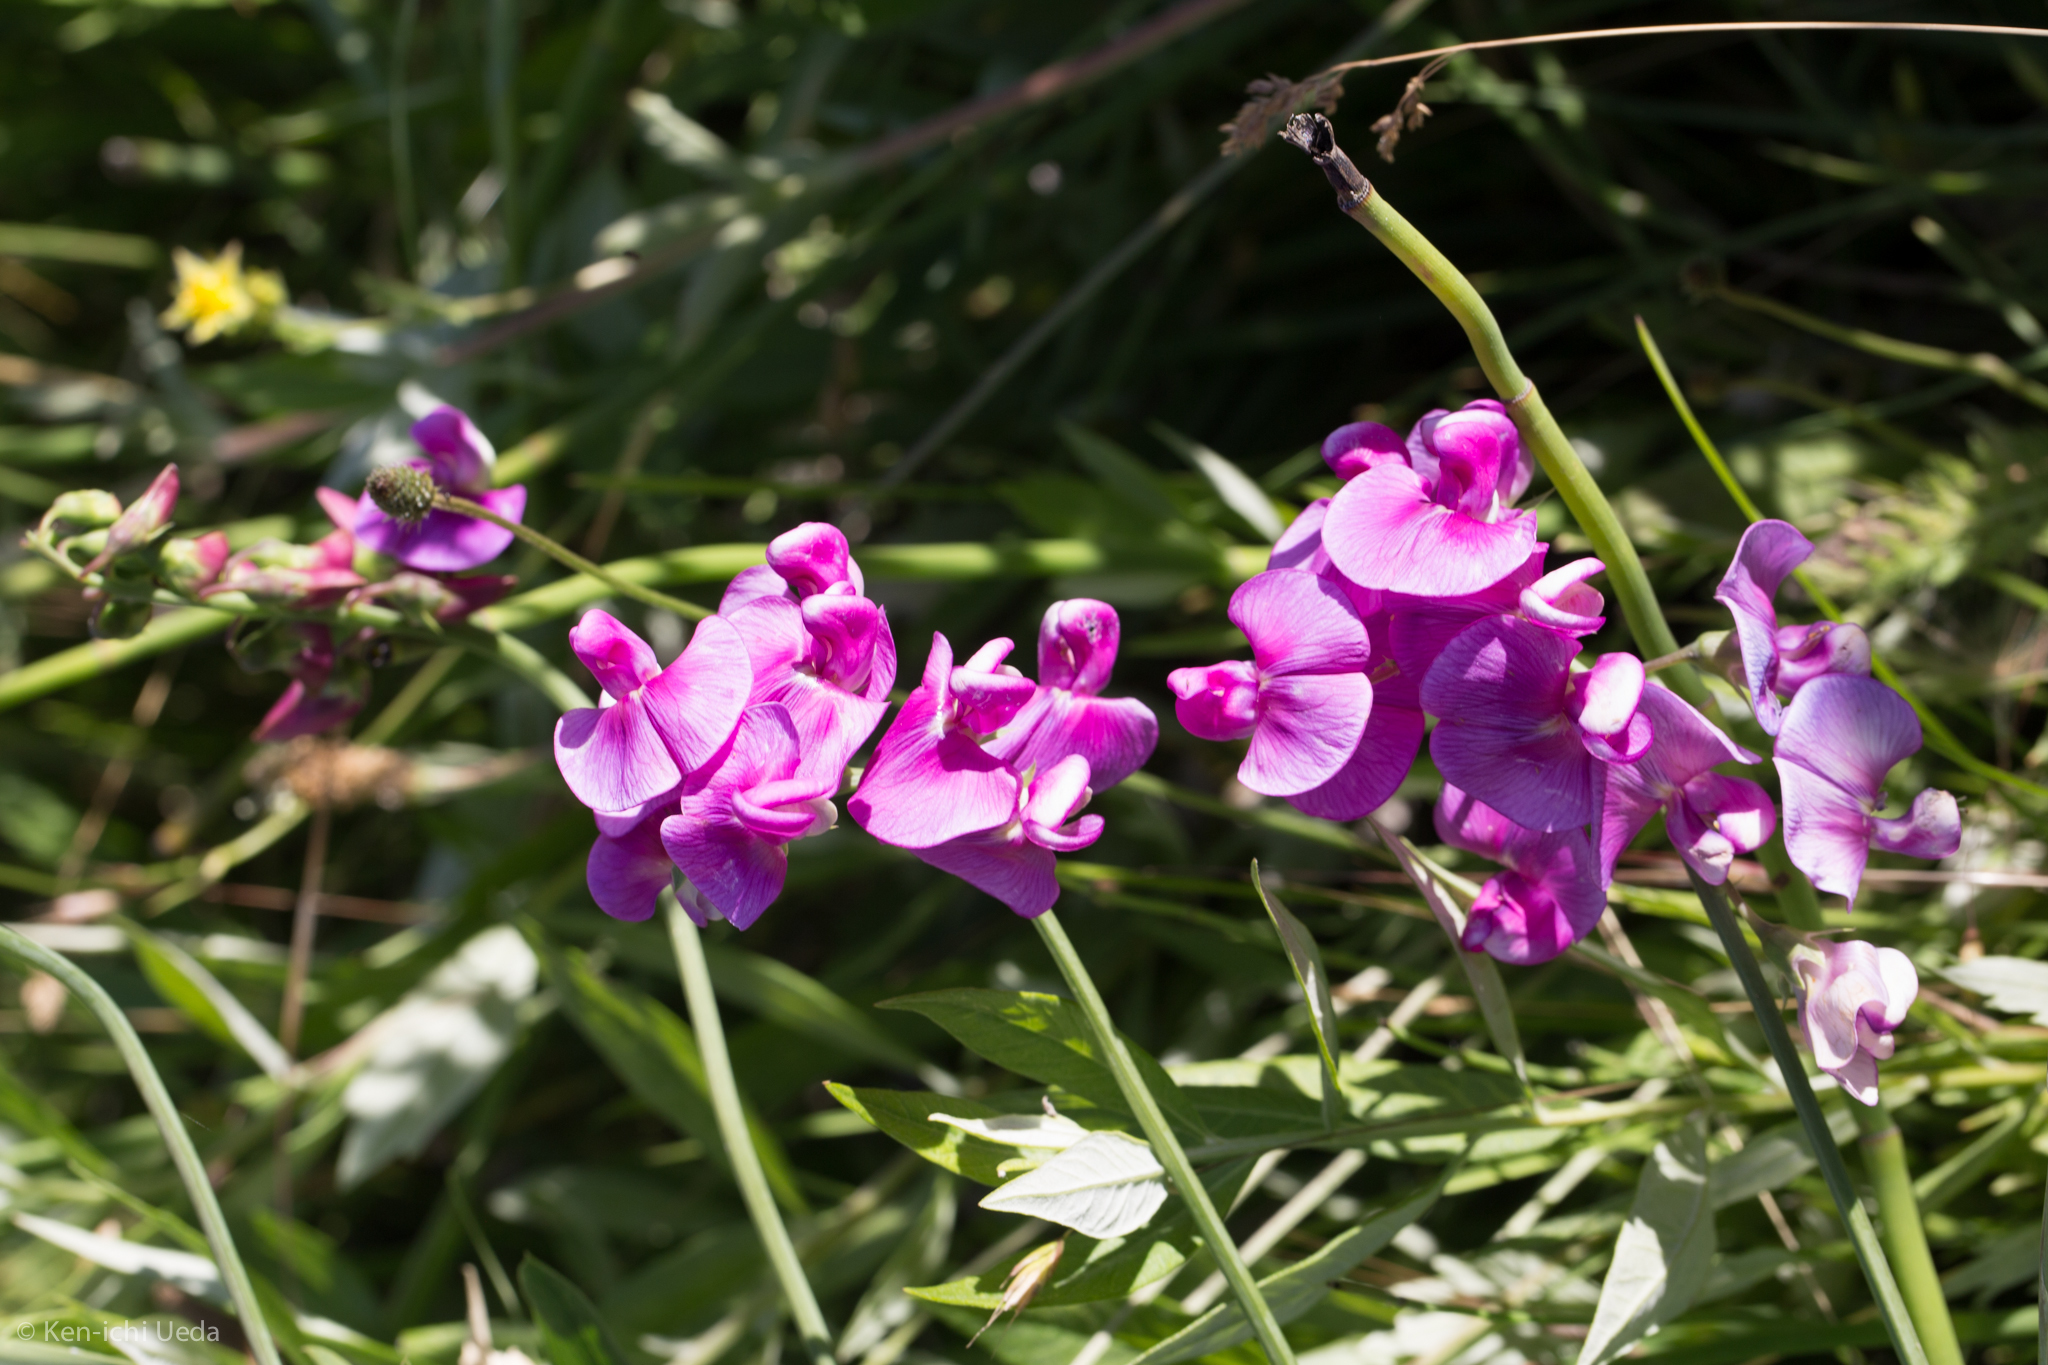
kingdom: Plantae
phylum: Tracheophyta
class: Magnoliopsida
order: Fabales
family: Fabaceae
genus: Lathyrus
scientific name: Lathyrus latifolius
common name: Perennial pea
